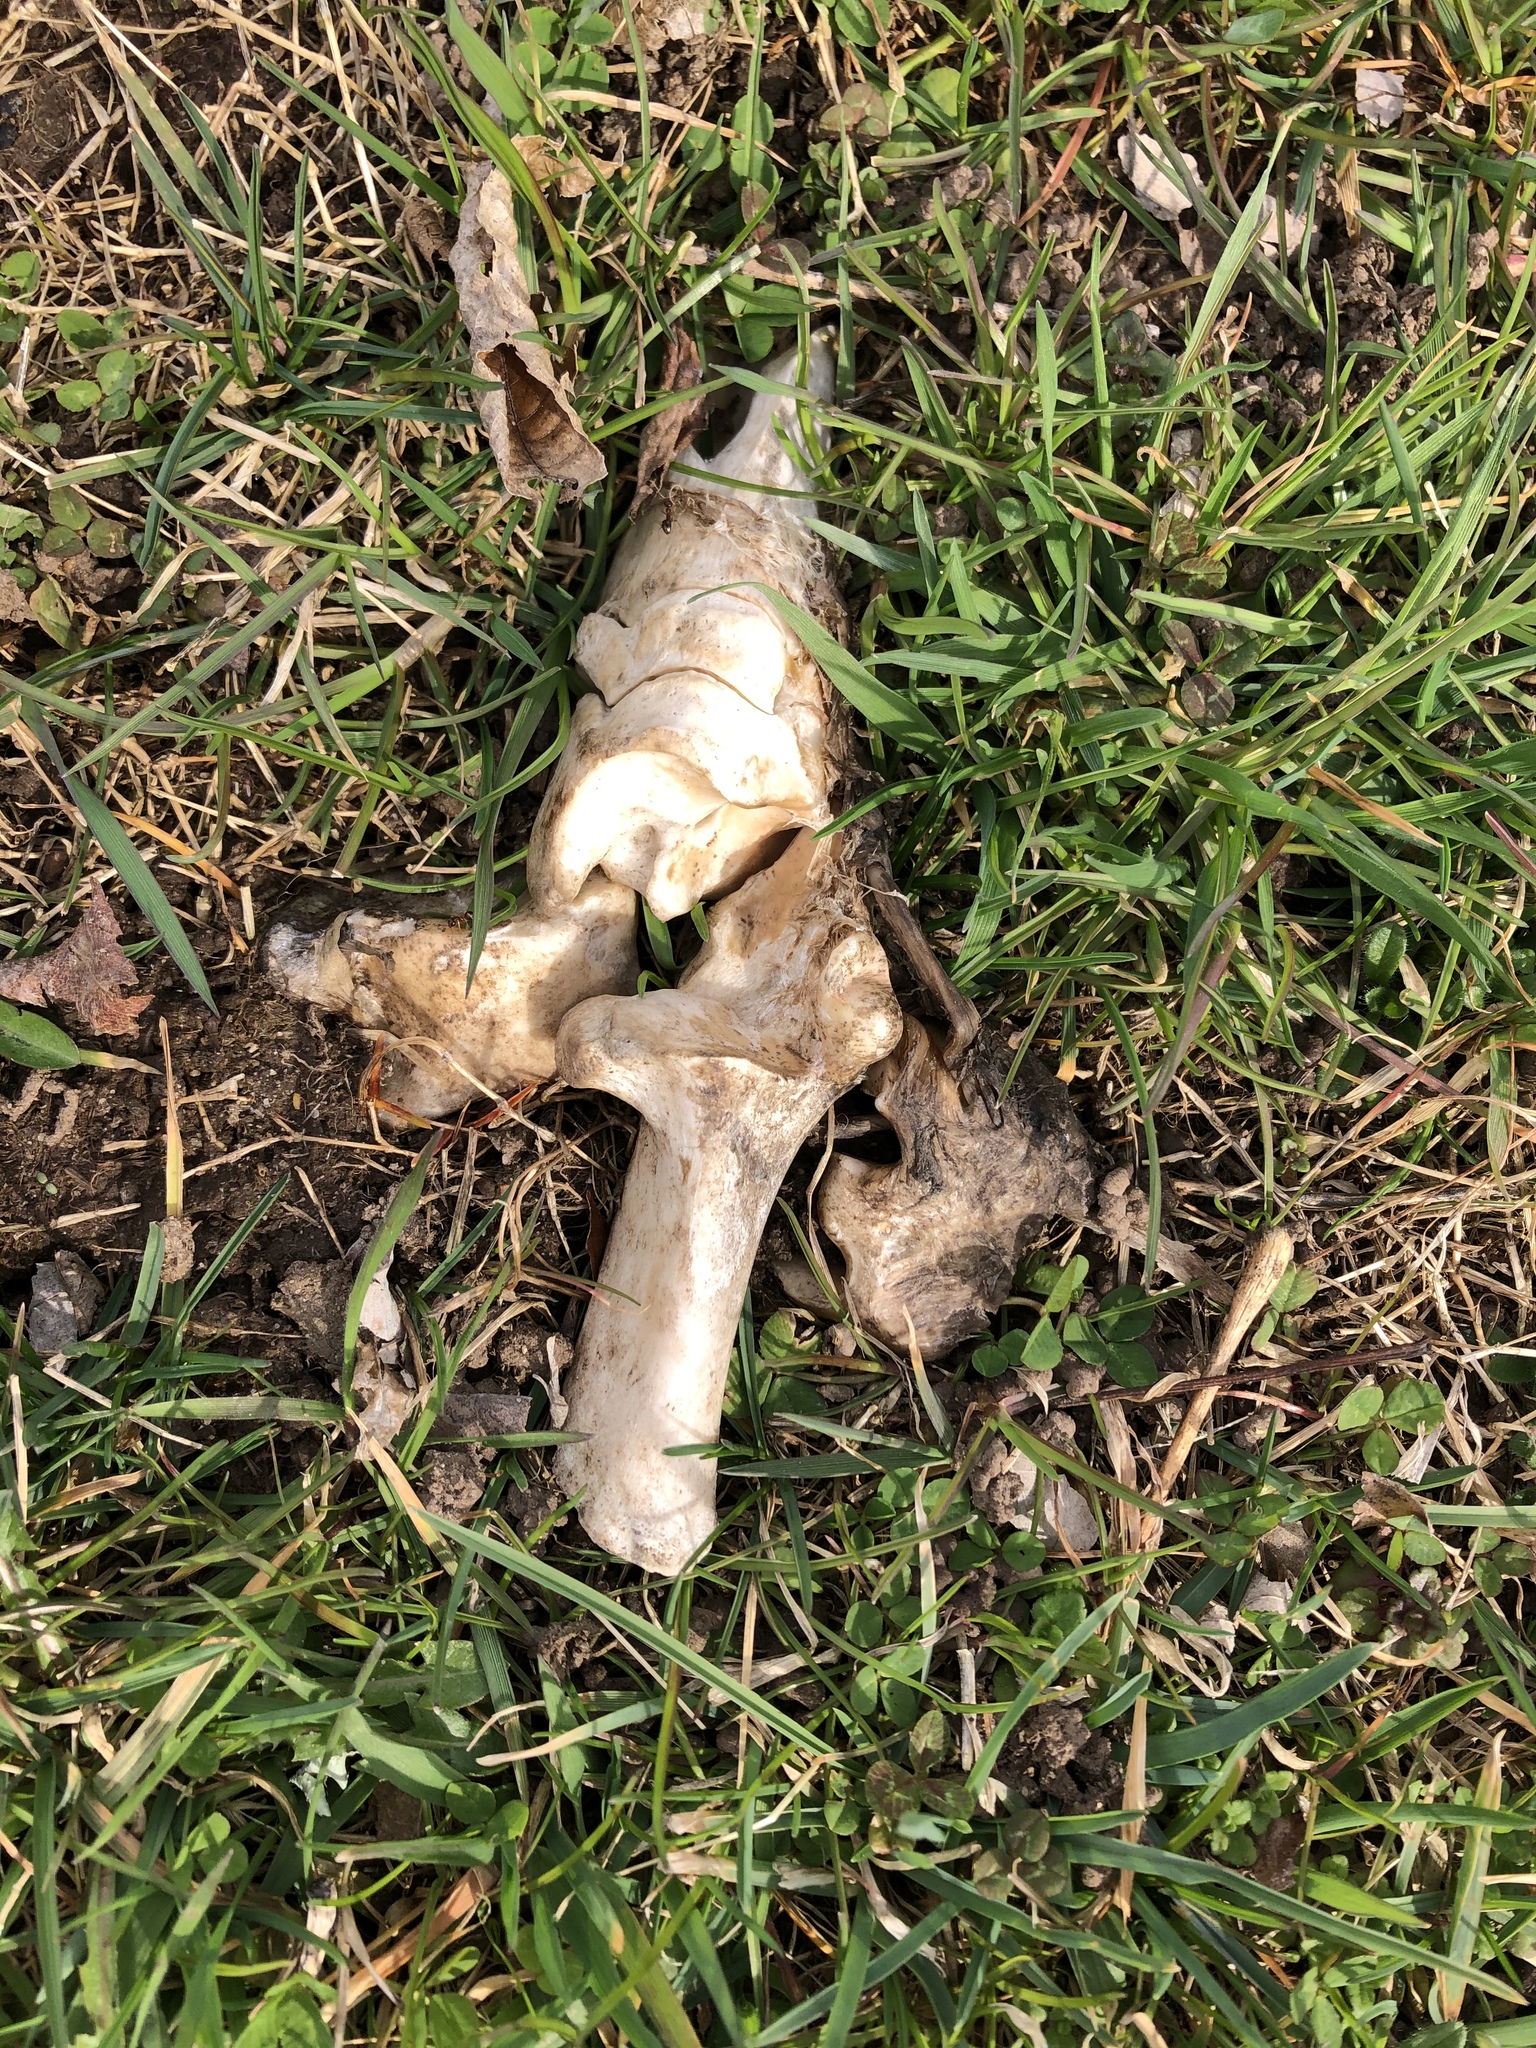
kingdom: Animalia
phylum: Chordata
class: Mammalia
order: Artiodactyla
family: Cervidae
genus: Odocoileus
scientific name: Odocoileus virginianus
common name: White-tailed deer
